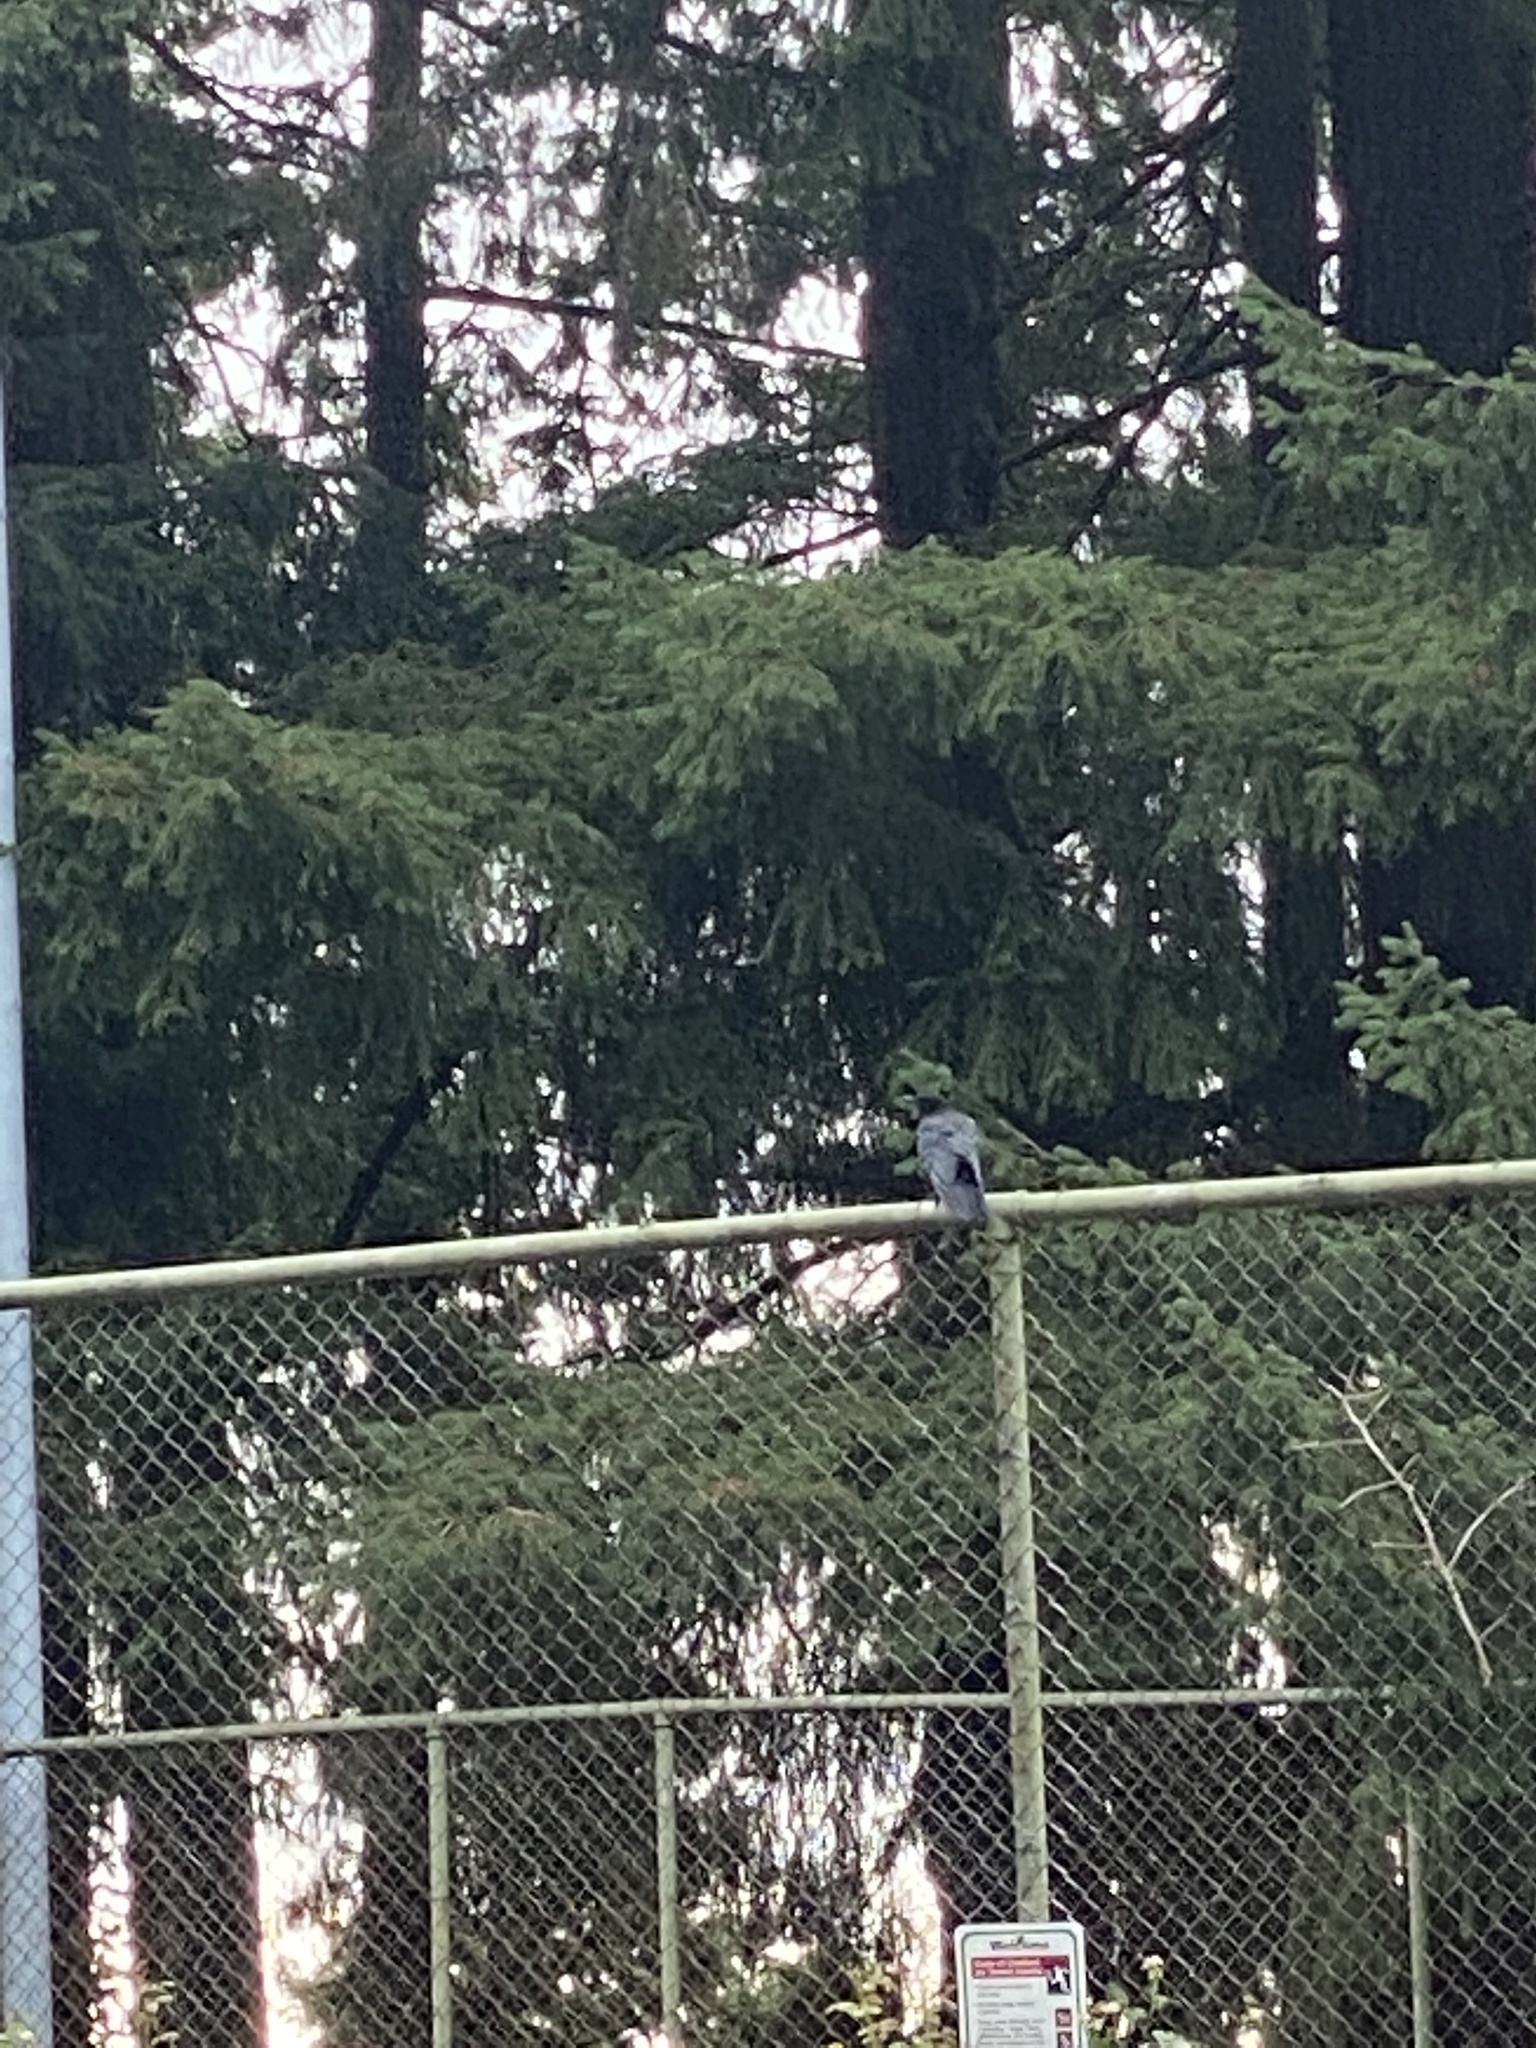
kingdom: Animalia
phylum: Chordata
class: Aves
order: Passeriformes
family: Corvidae
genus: Corvus
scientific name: Corvus brachyrhynchos
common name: American crow
